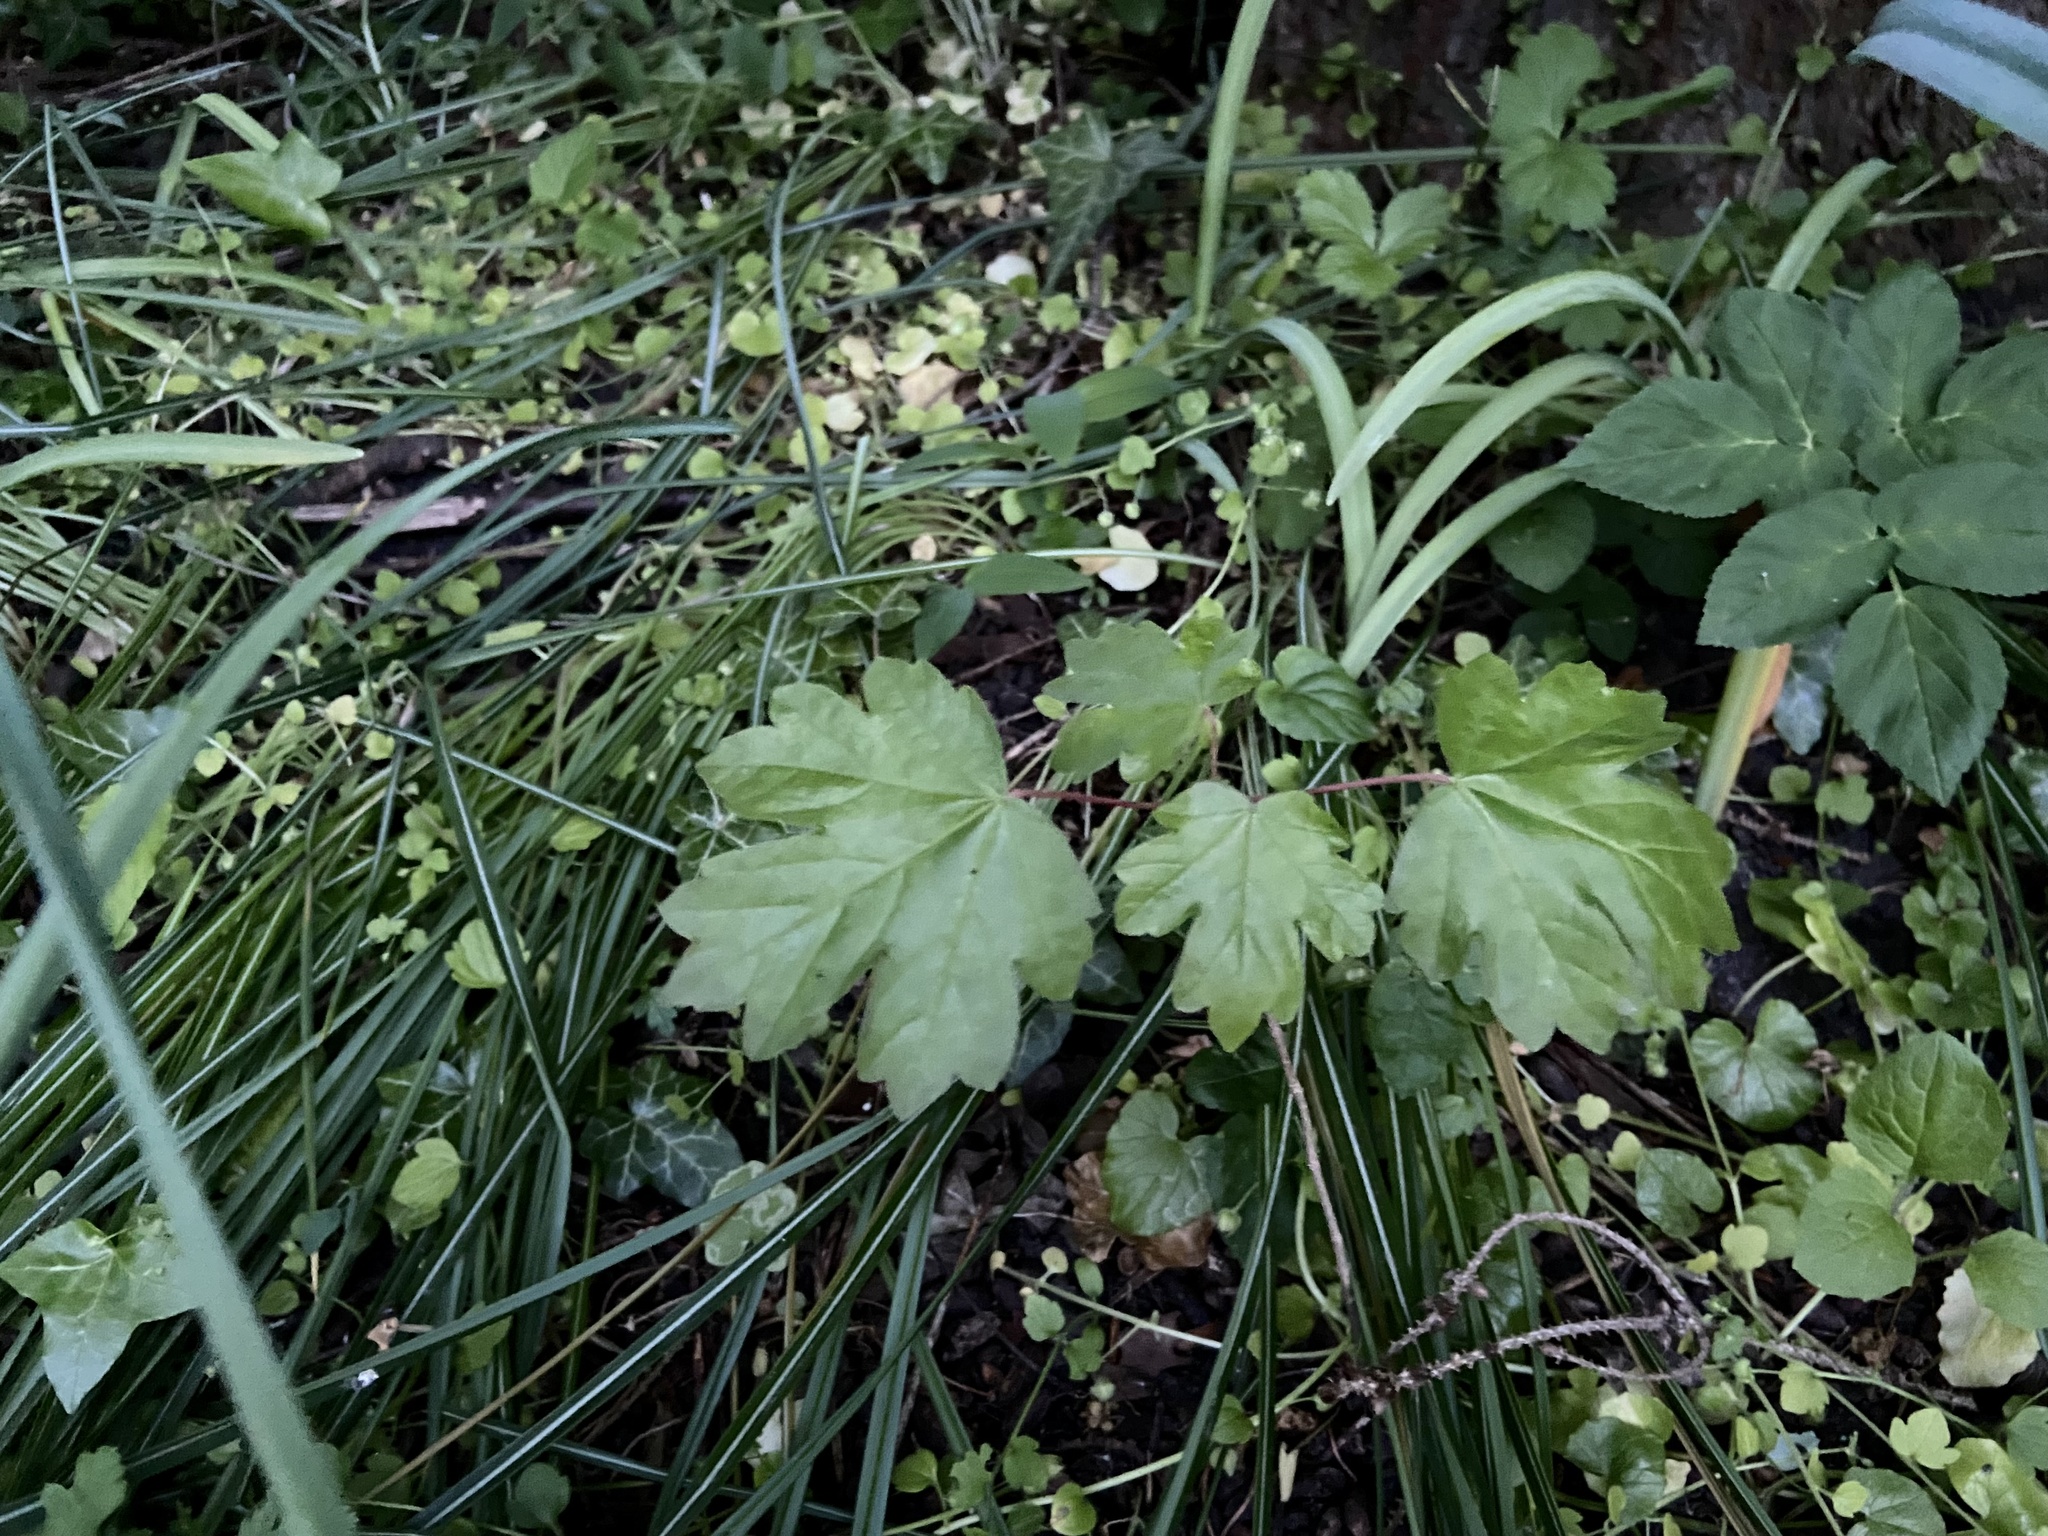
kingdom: Plantae
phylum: Tracheophyta
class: Magnoliopsida
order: Sapindales
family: Sapindaceae
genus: Acer
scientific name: Acer campestre
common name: Field maple
